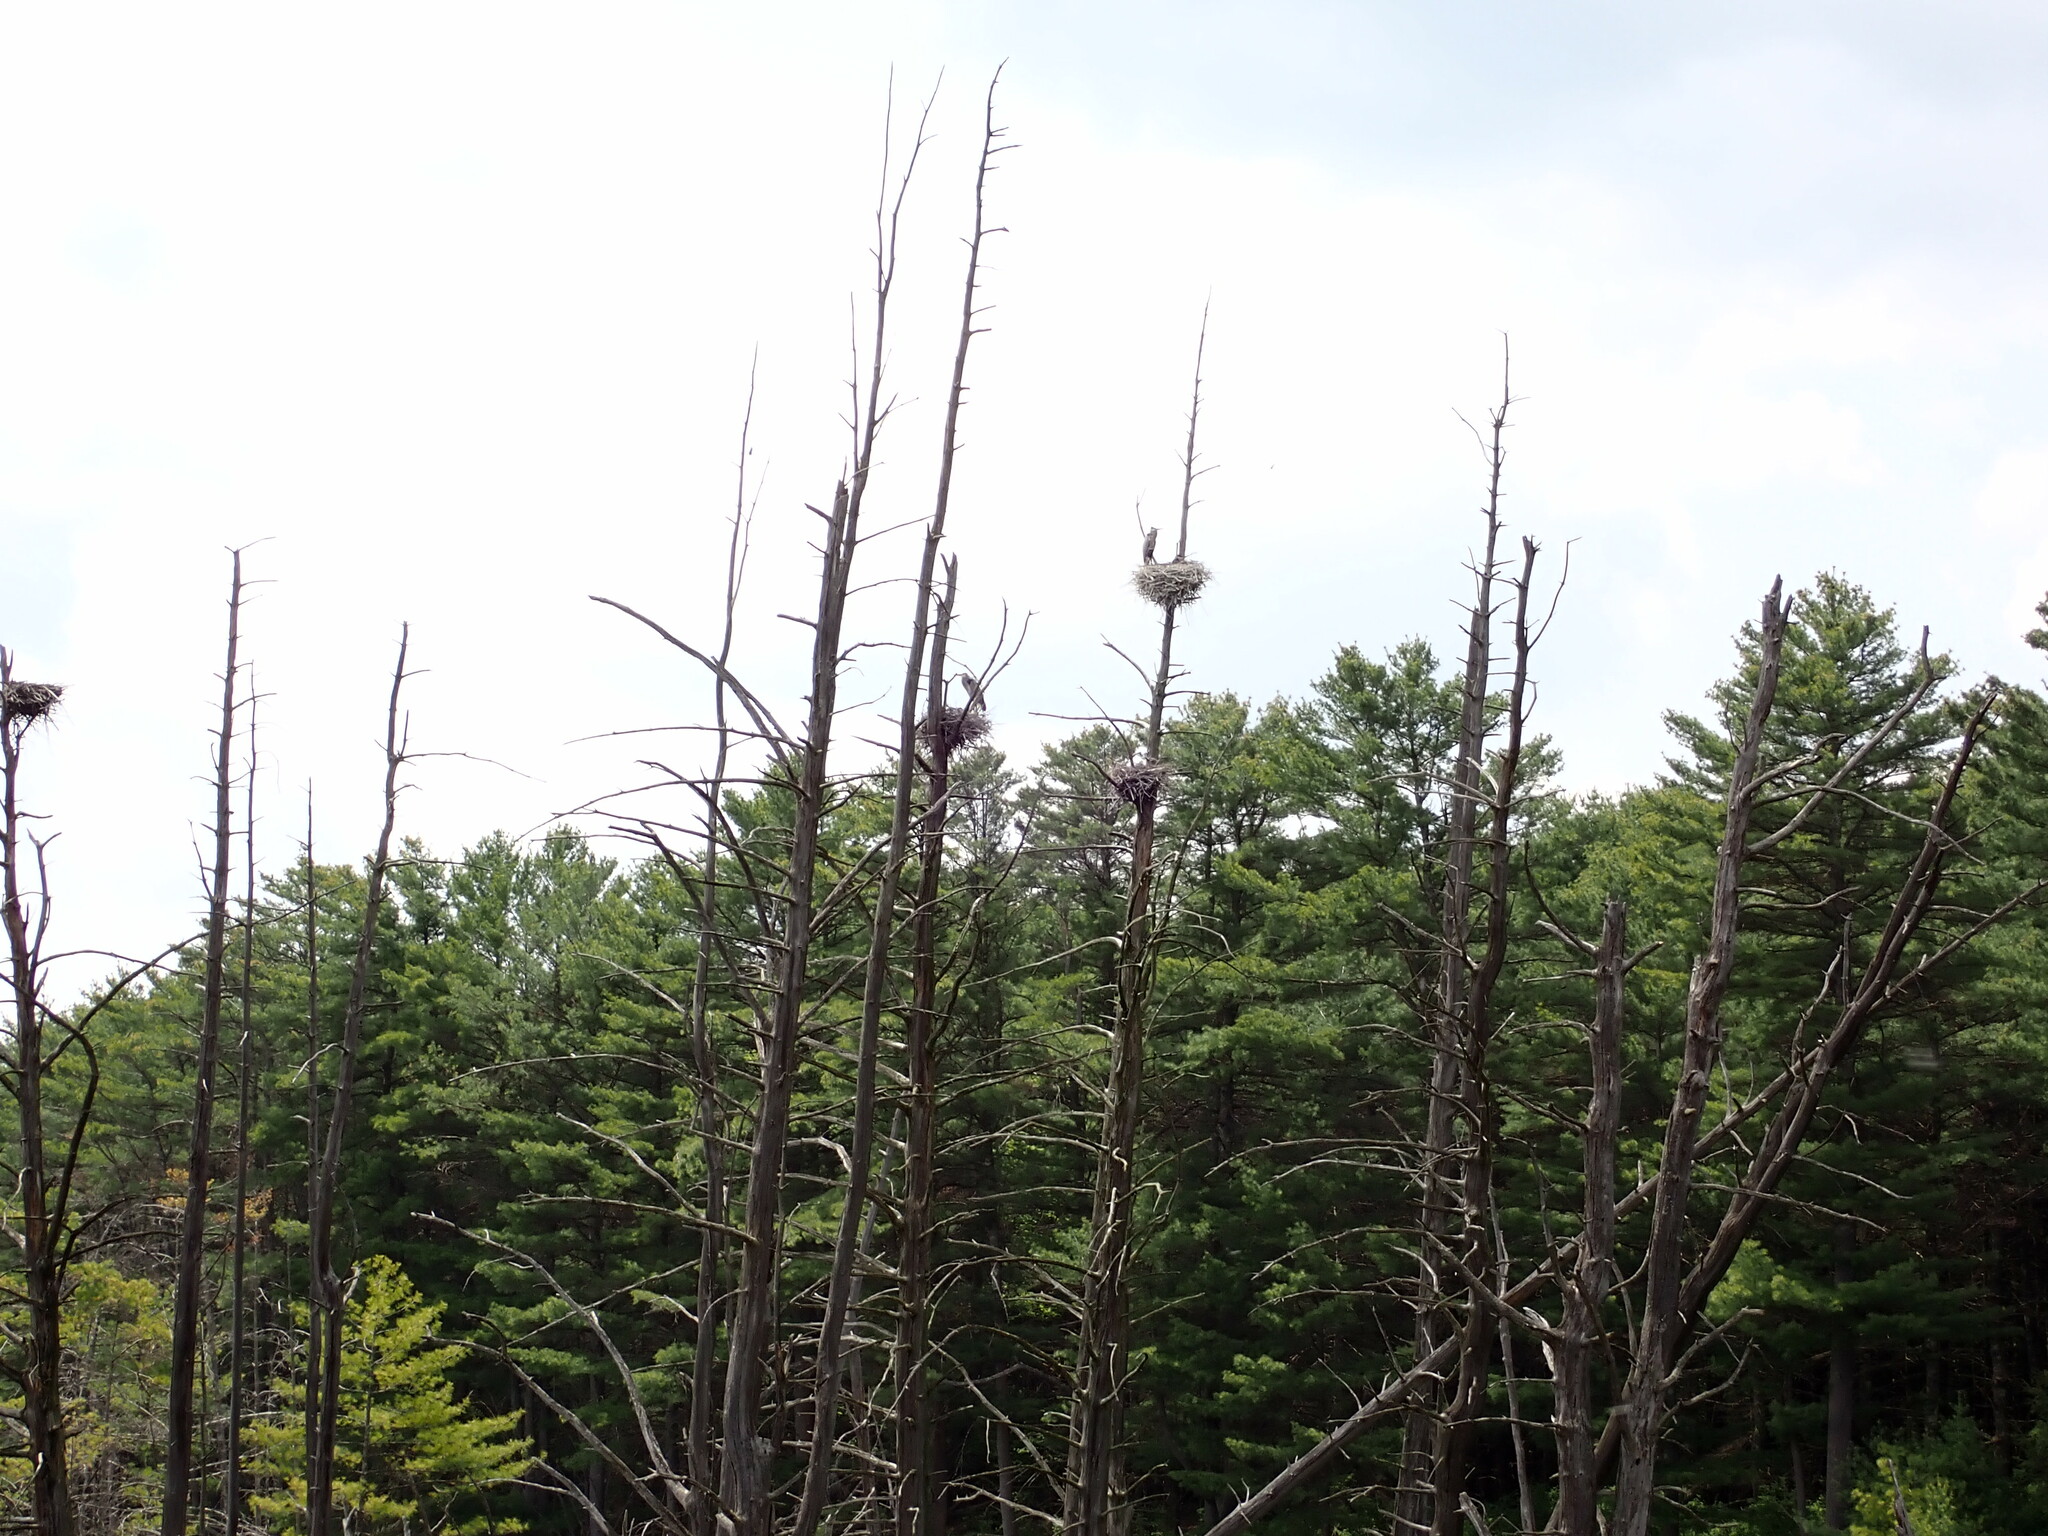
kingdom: Animalia
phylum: Chordata
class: Aves
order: Pelecaniformes
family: Ardeidae
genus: Ardea
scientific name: Ardea herodias
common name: Great blue heron
